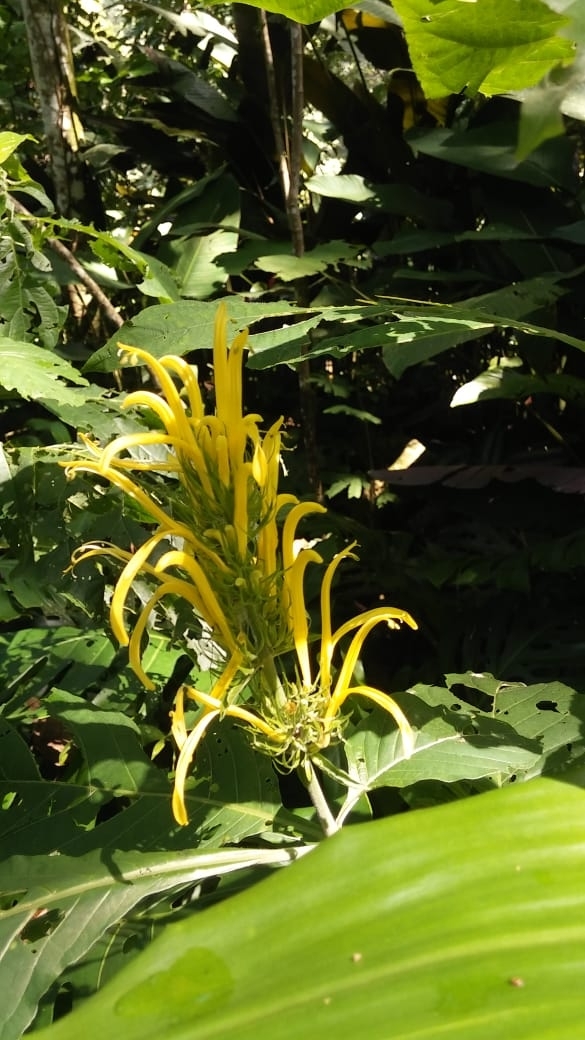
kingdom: Plantae
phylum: Tracheophyta
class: Magnoliopsida
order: Lamiales
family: Acanthaceae
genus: Justicia
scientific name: Justicia aurea
